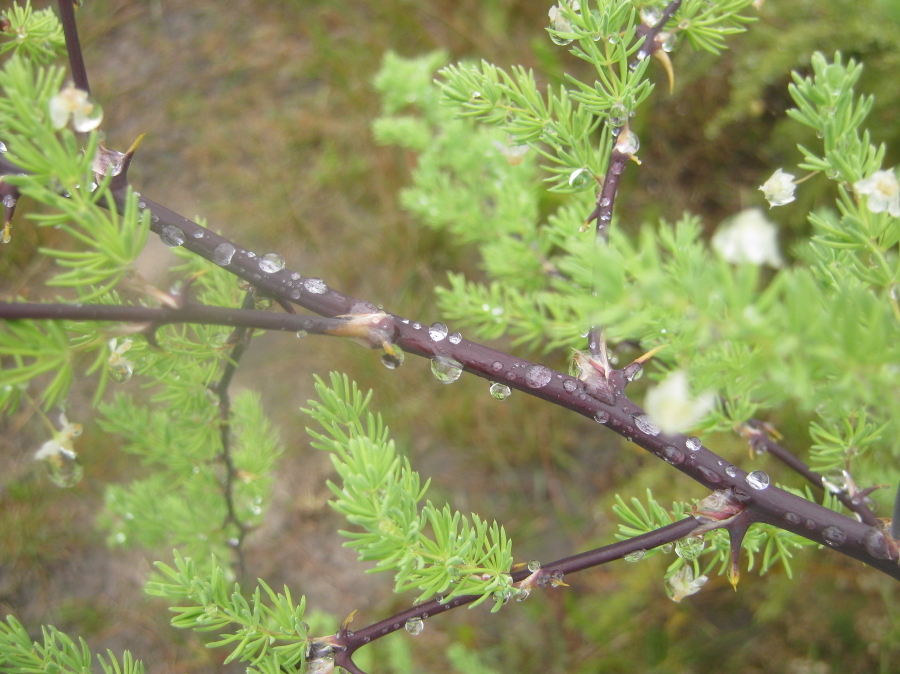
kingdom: Plantae
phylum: Tracheophyta
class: Liliopsida
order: Asparagales
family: Asparagaceae
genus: Asparagus
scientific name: Asparagus rubicundus
